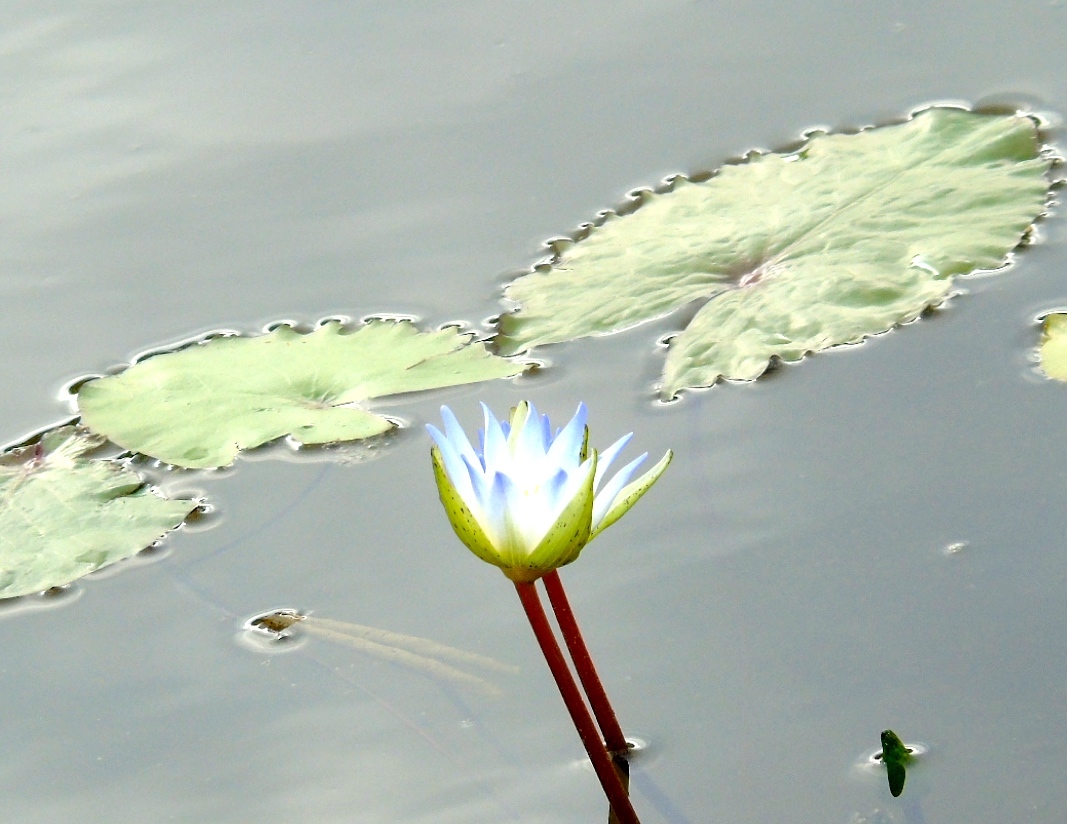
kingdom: Plantae
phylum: Tracheophyta
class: Magnoliopsida
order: Nymphaeales
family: Nymphaeaceae
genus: Nymphaea
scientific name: Nymphaea
